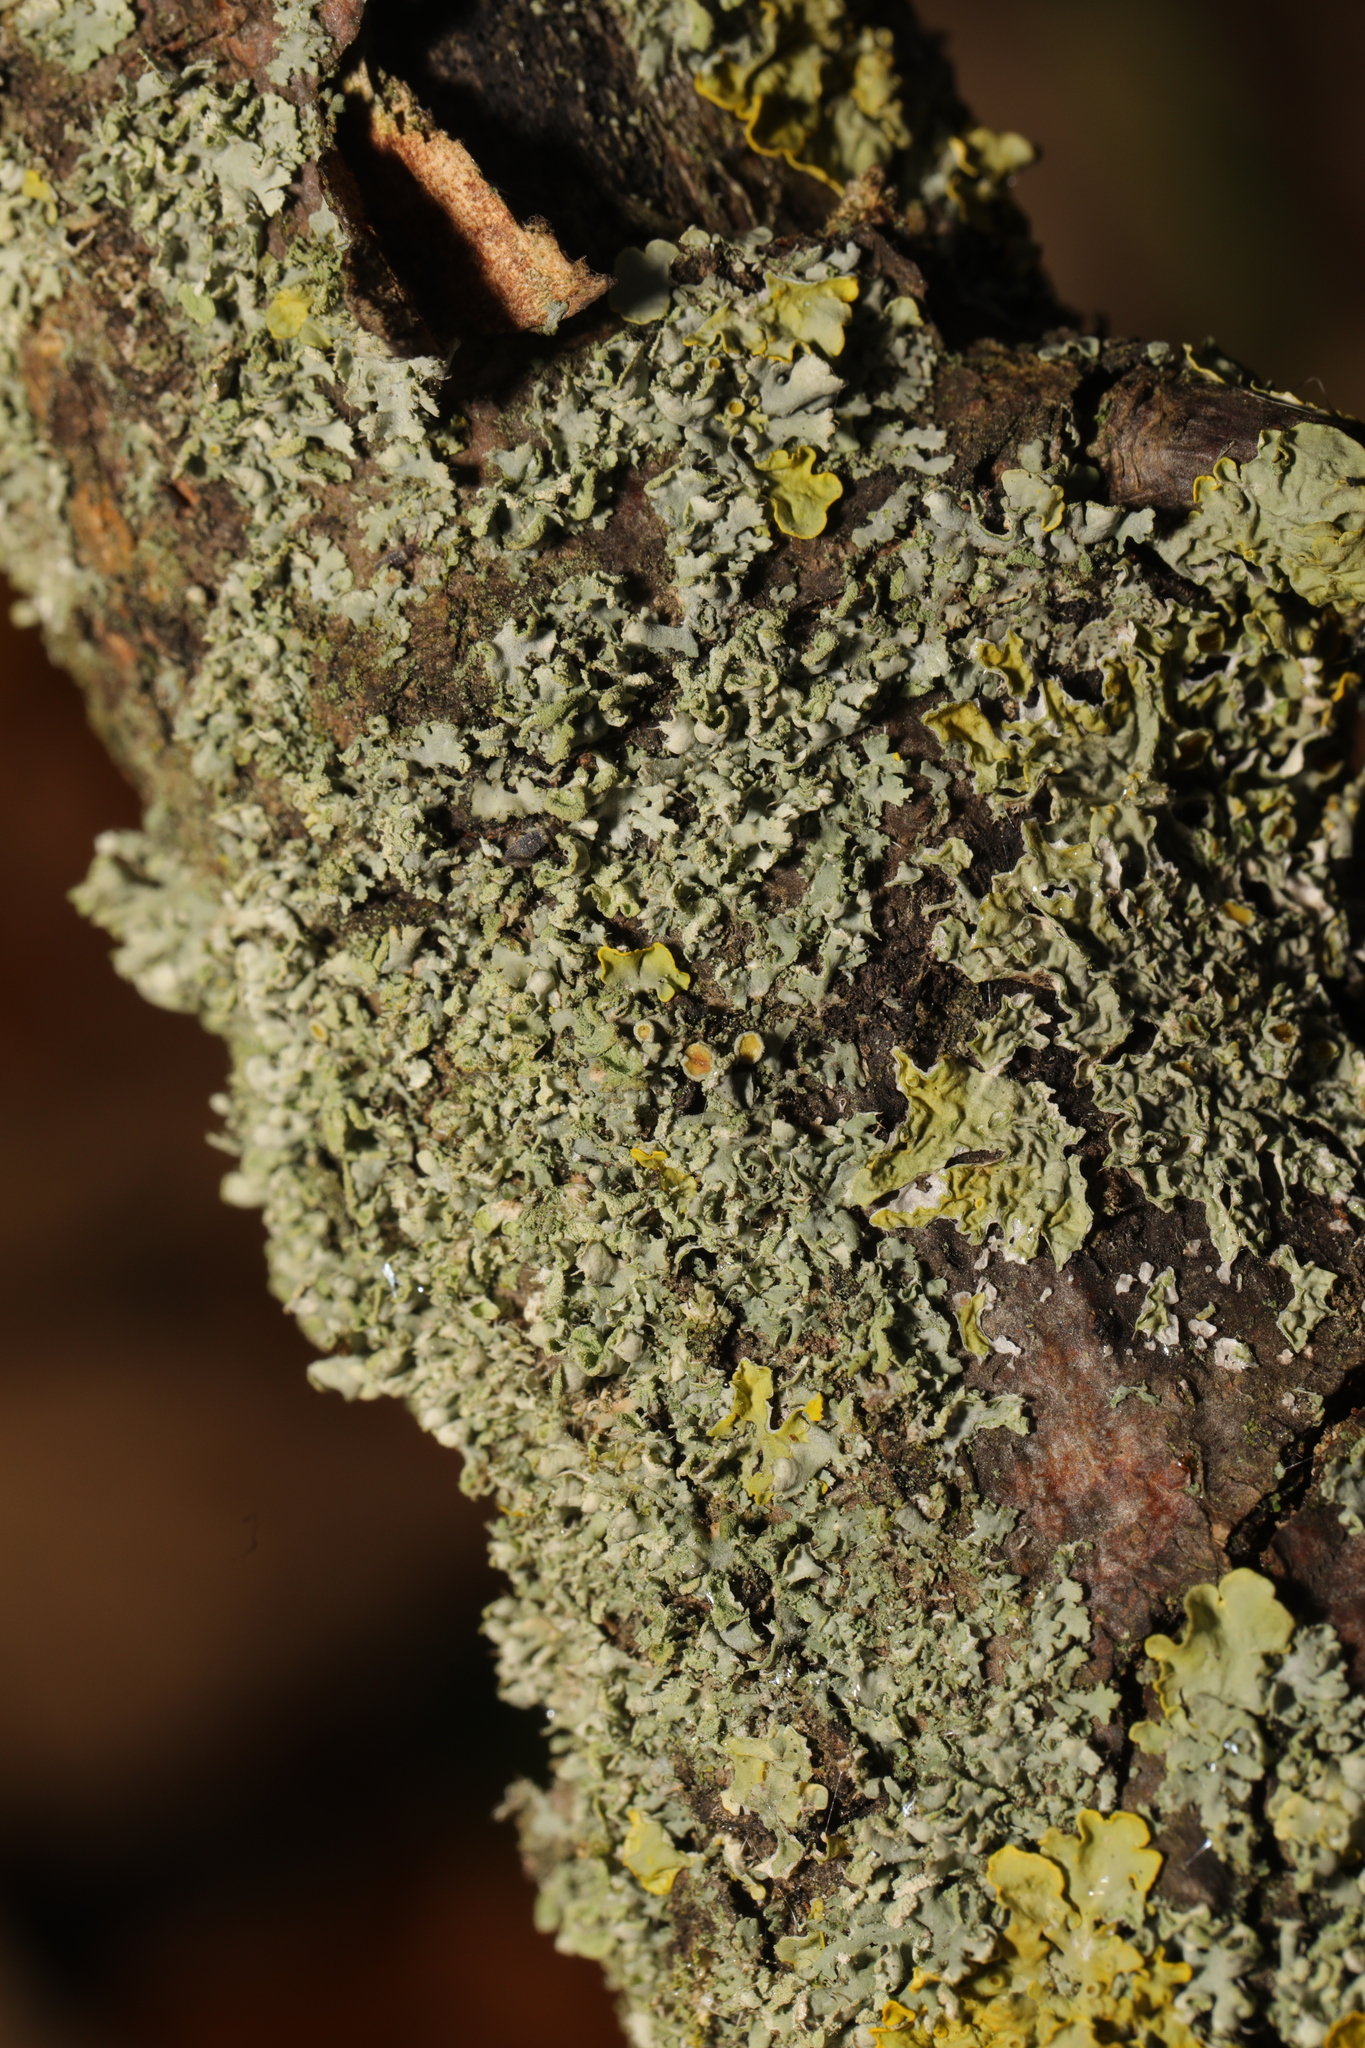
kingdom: Fungi
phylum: Ascomycota
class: Lecanoromycetes
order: Caliciales
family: Physciaceae
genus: Physcia
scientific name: Physcia tenella
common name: Fringed rosette lichen
